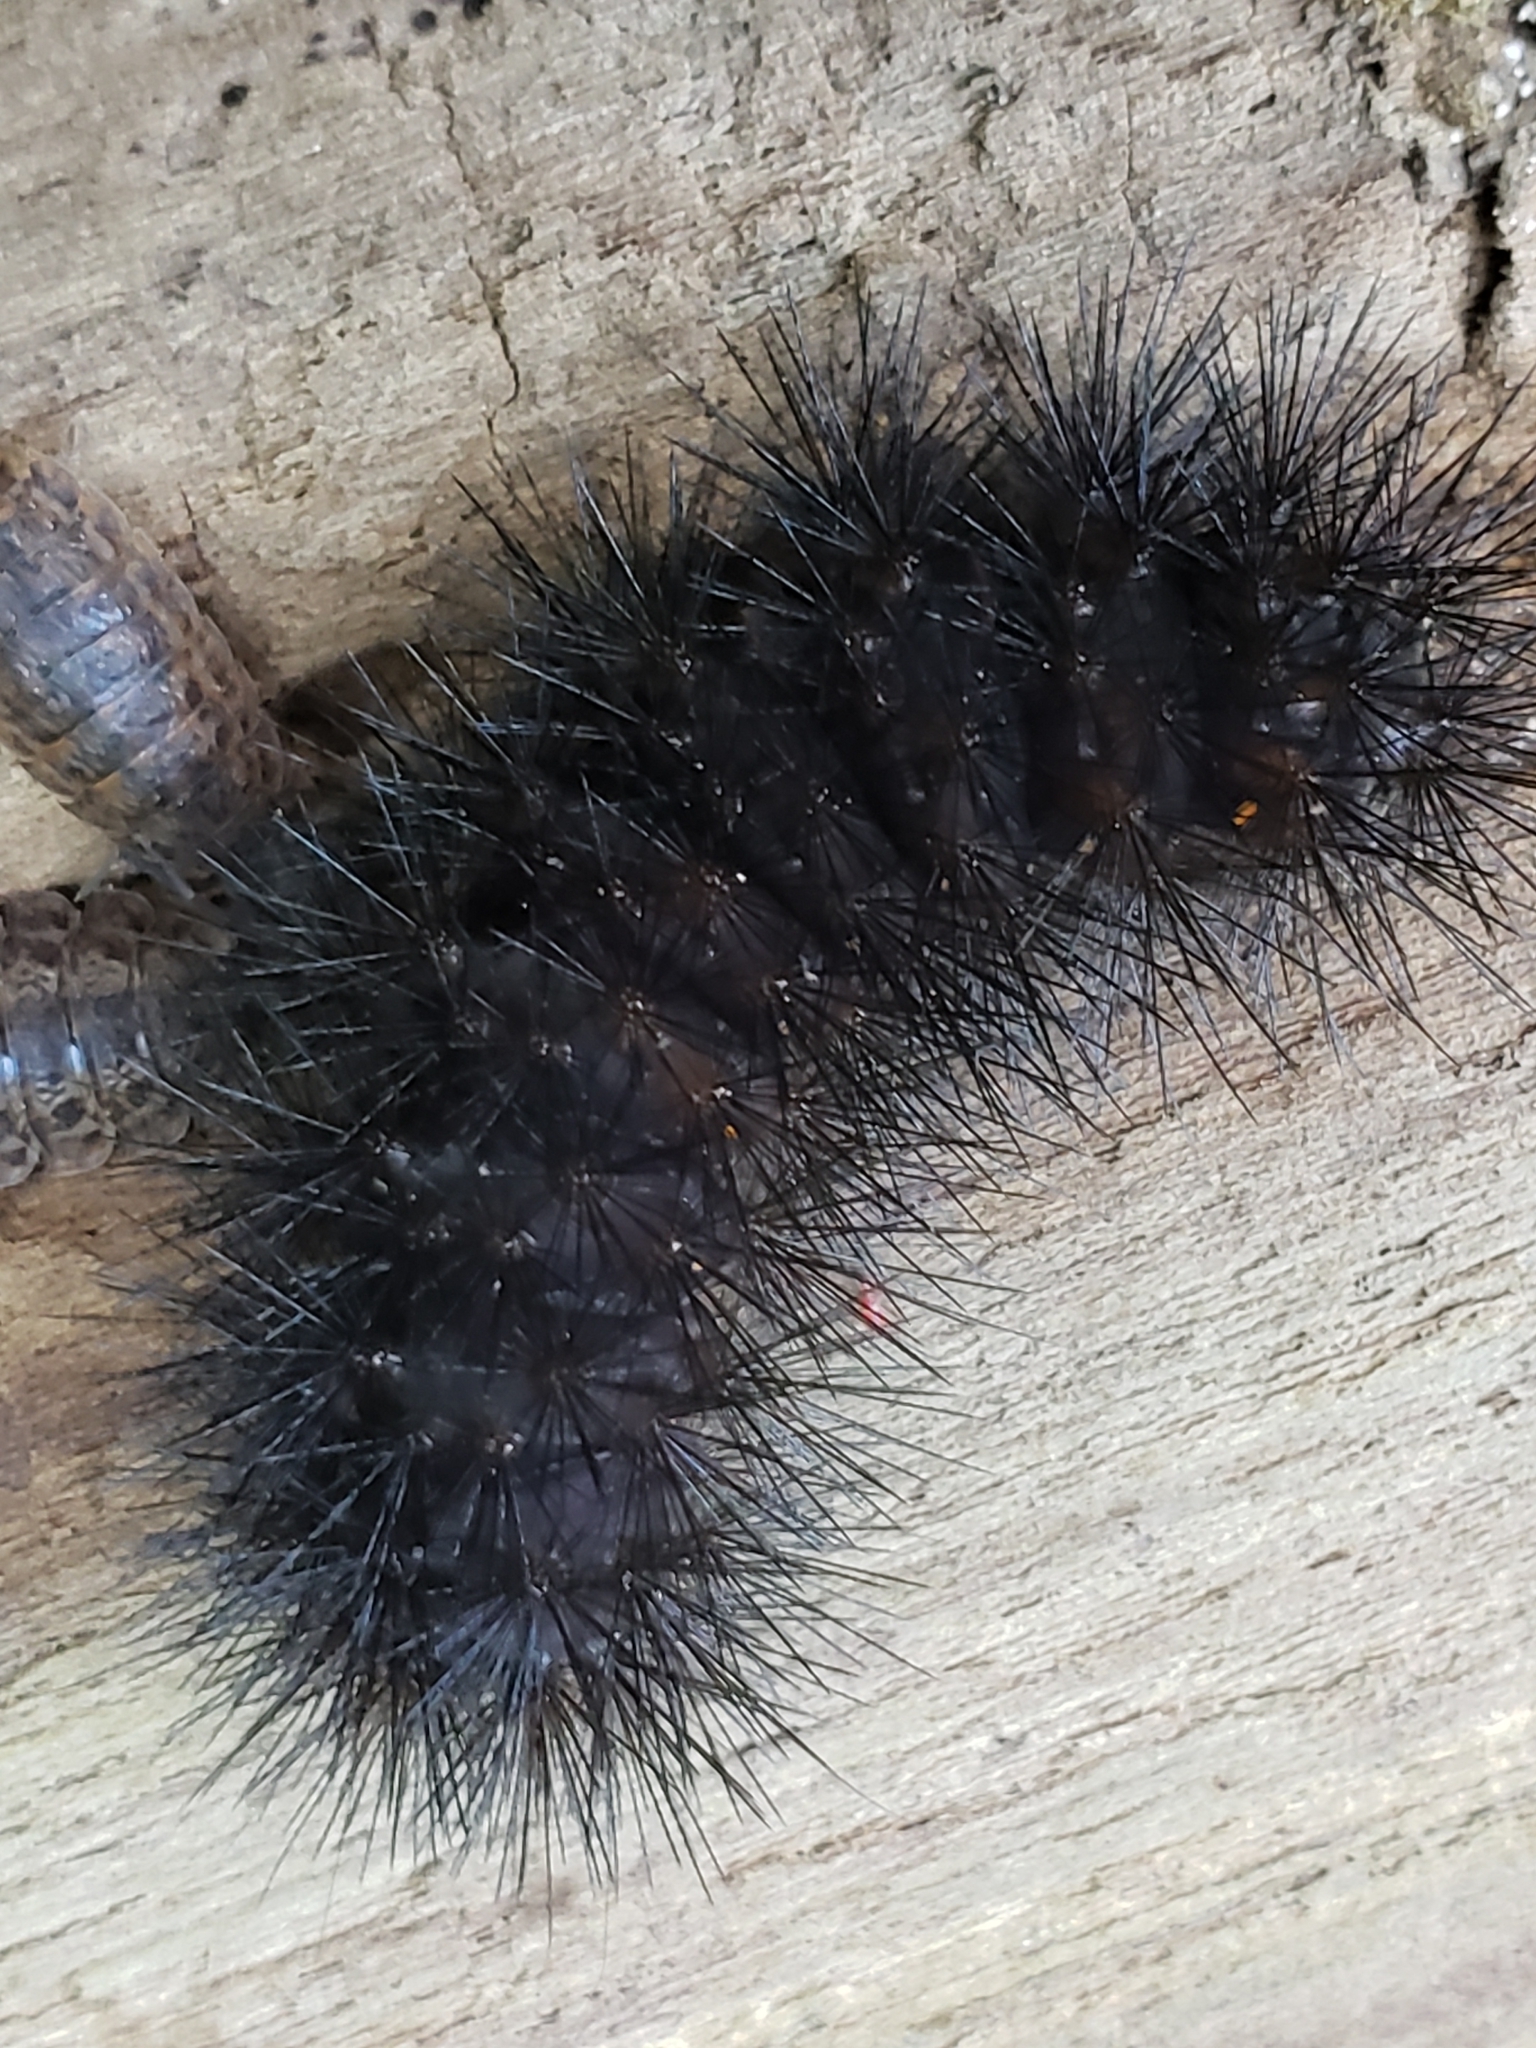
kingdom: Animalia
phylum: Arthropoda
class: Insecta
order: Lepidoptera
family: Erebidae
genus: Hypercompe
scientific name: Hypercompe scribonia
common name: Giant leopard moth
